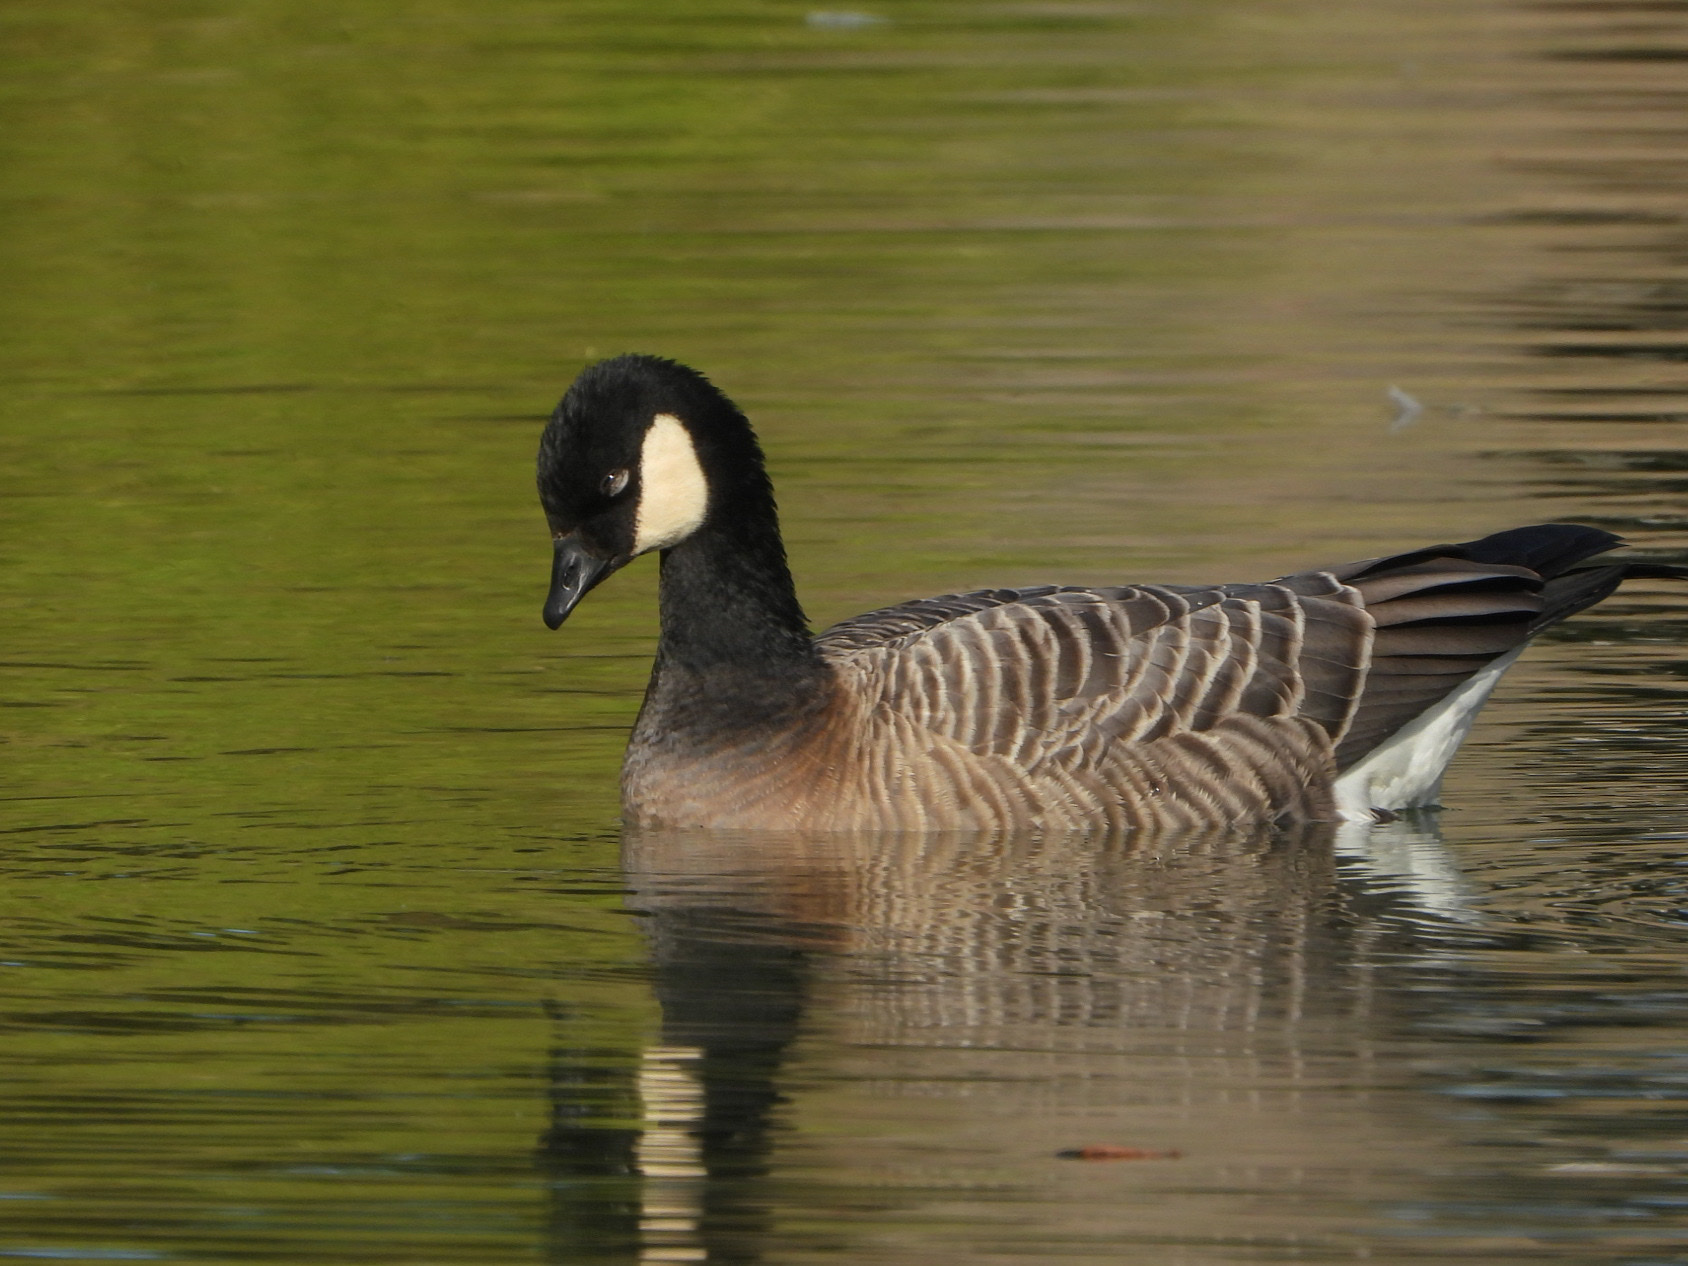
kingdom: Animalia
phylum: Chordata
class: Aves
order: Anseriformes
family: Anatidae
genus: Branta
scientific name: Branta hutchinsii
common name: Cackling goose
